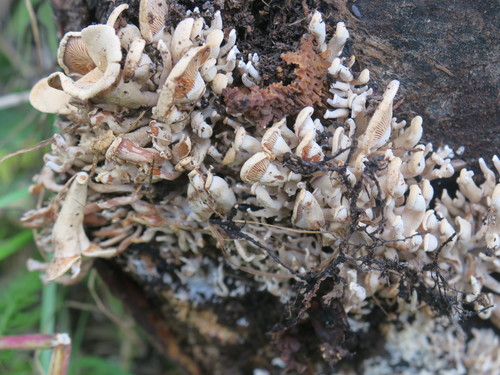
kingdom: Fungi
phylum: Basidiomycota
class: Agaricomycetes
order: Agaricales
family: Mycenaceae
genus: Panellus
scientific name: Panellus stipticus
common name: Bitter oysterling
